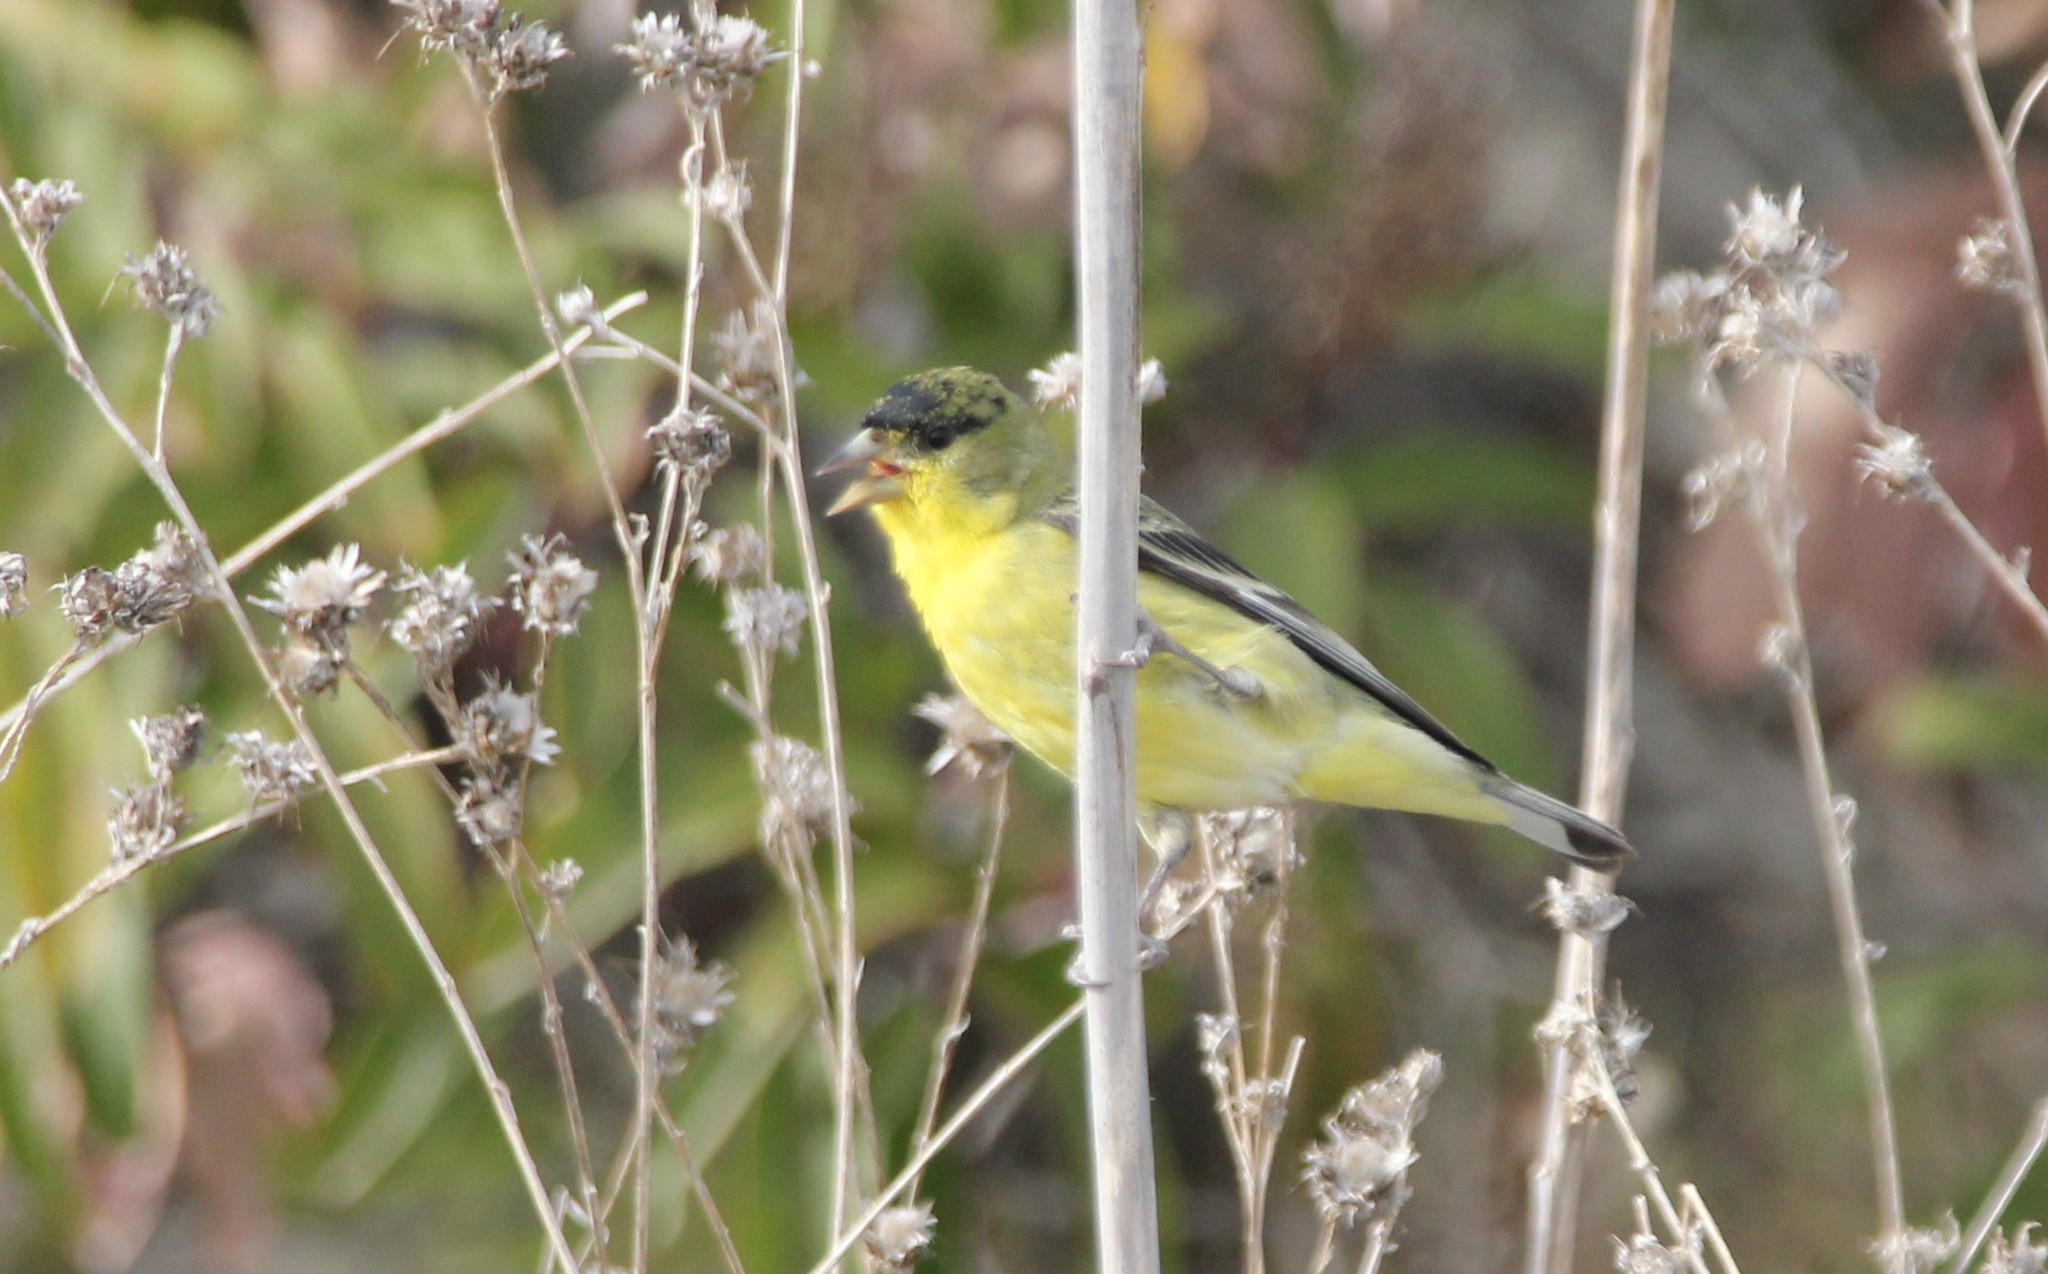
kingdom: Animalia
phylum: Chordata
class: Aves
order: Passeriformes
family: Fringillidae
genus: Spinus
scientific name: Spinus psaltria
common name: Lesser goldfinch
